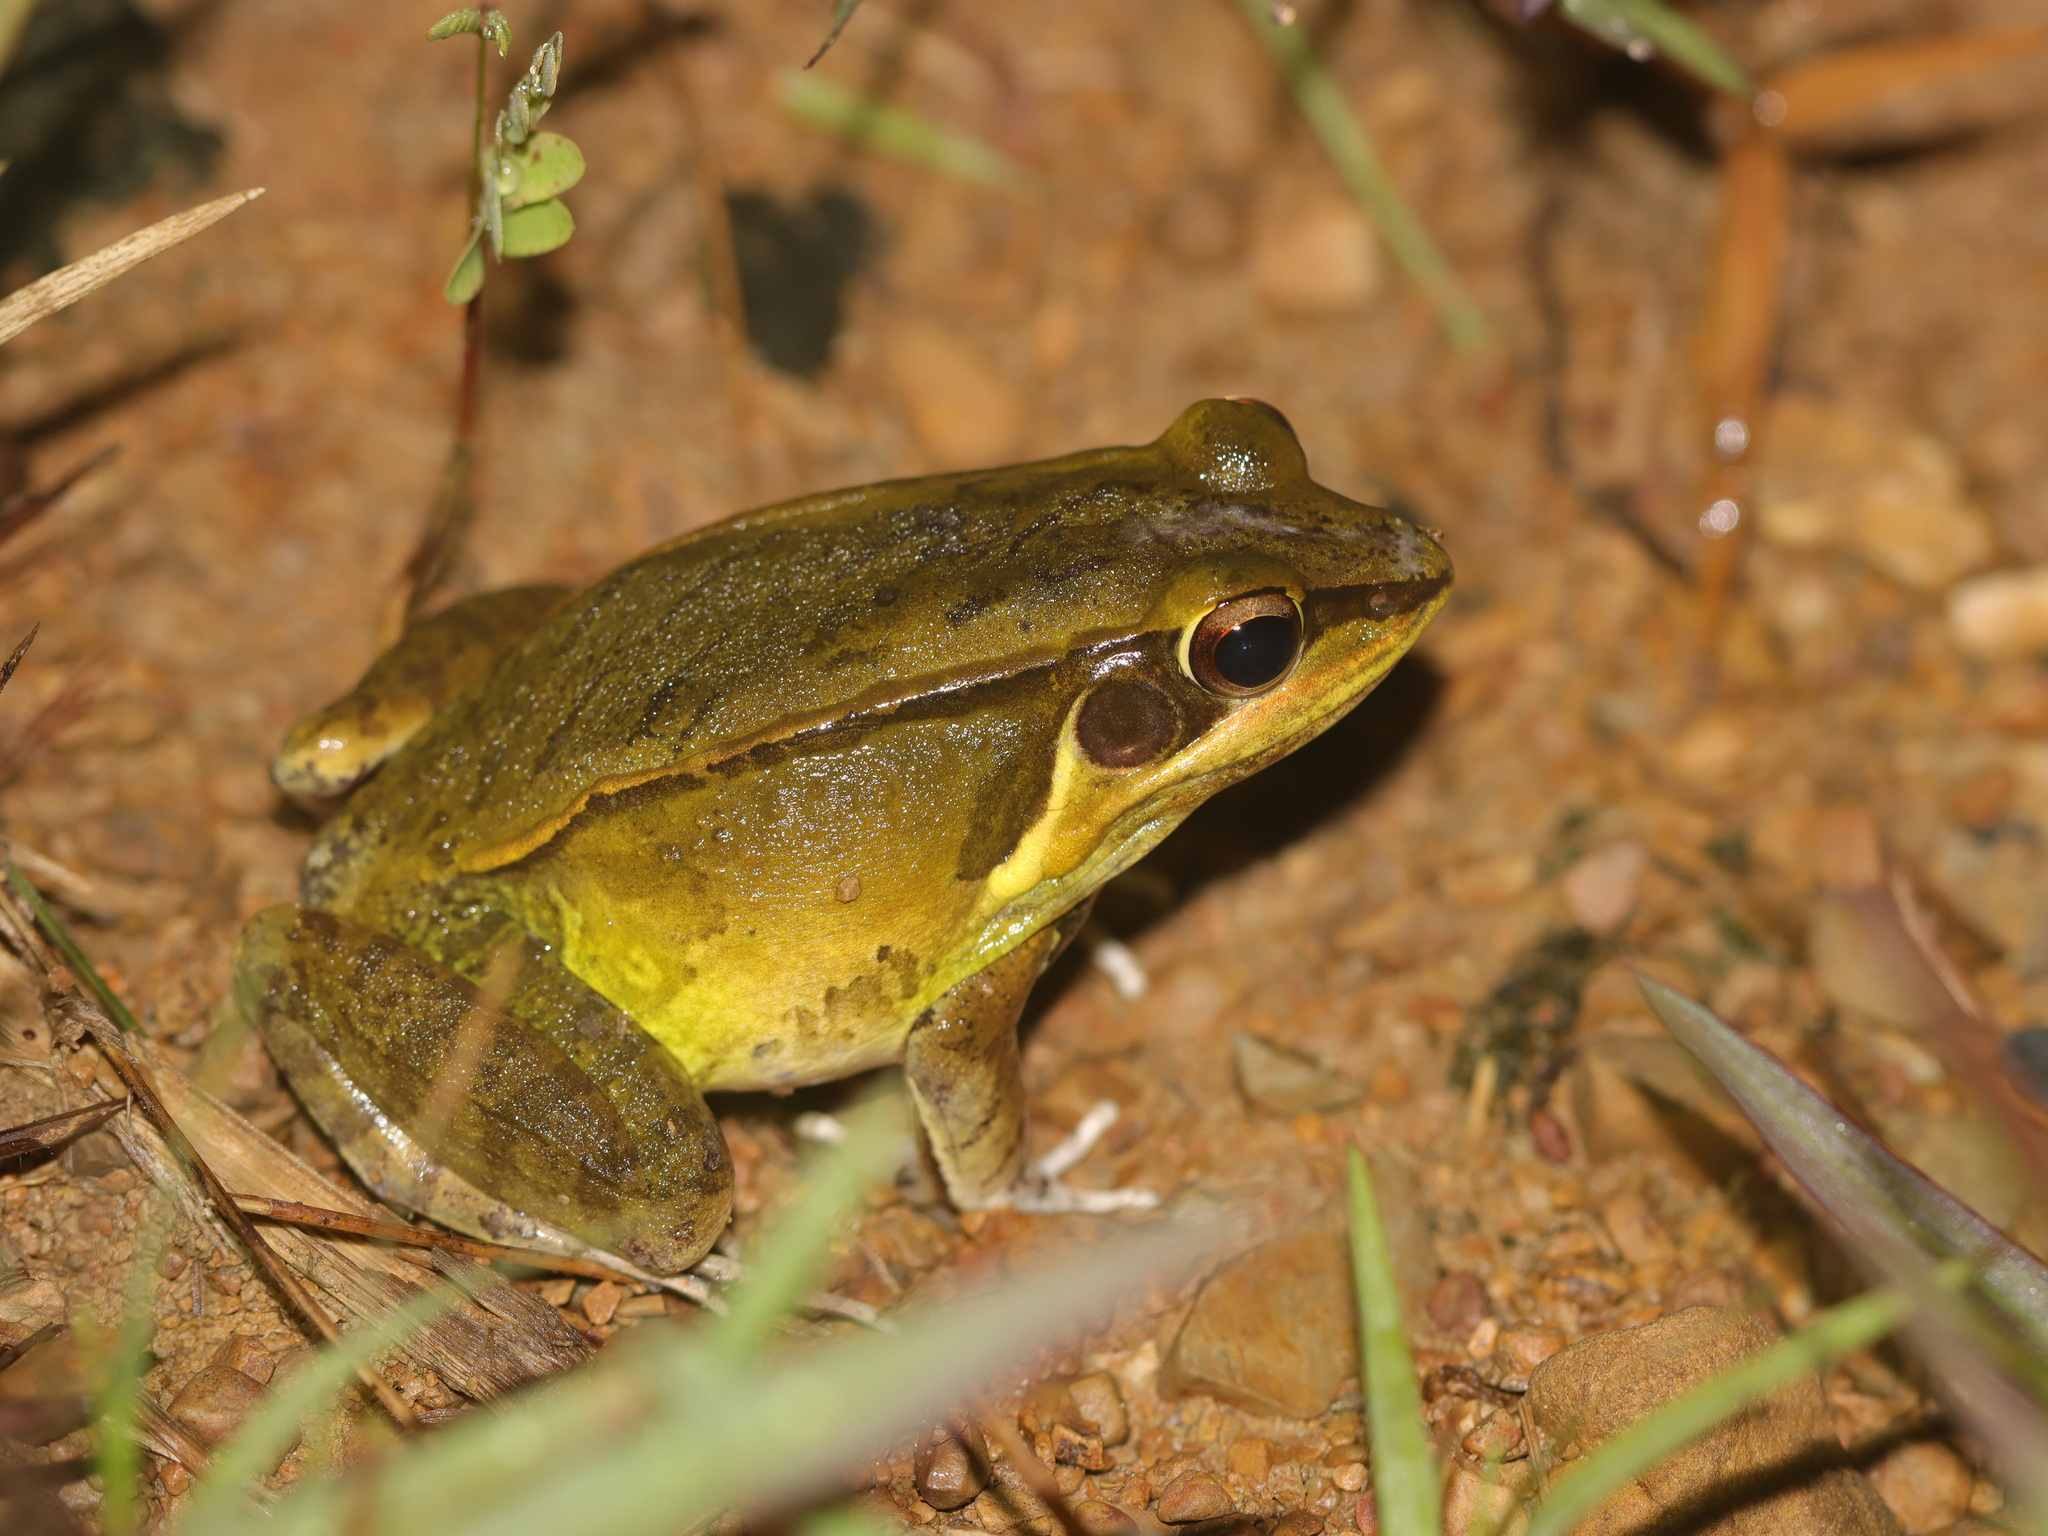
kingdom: Animalia
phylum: Chordata
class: Amphibia
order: Anura
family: Ranidae
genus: Hylarana
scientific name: Hylarana lateralis
